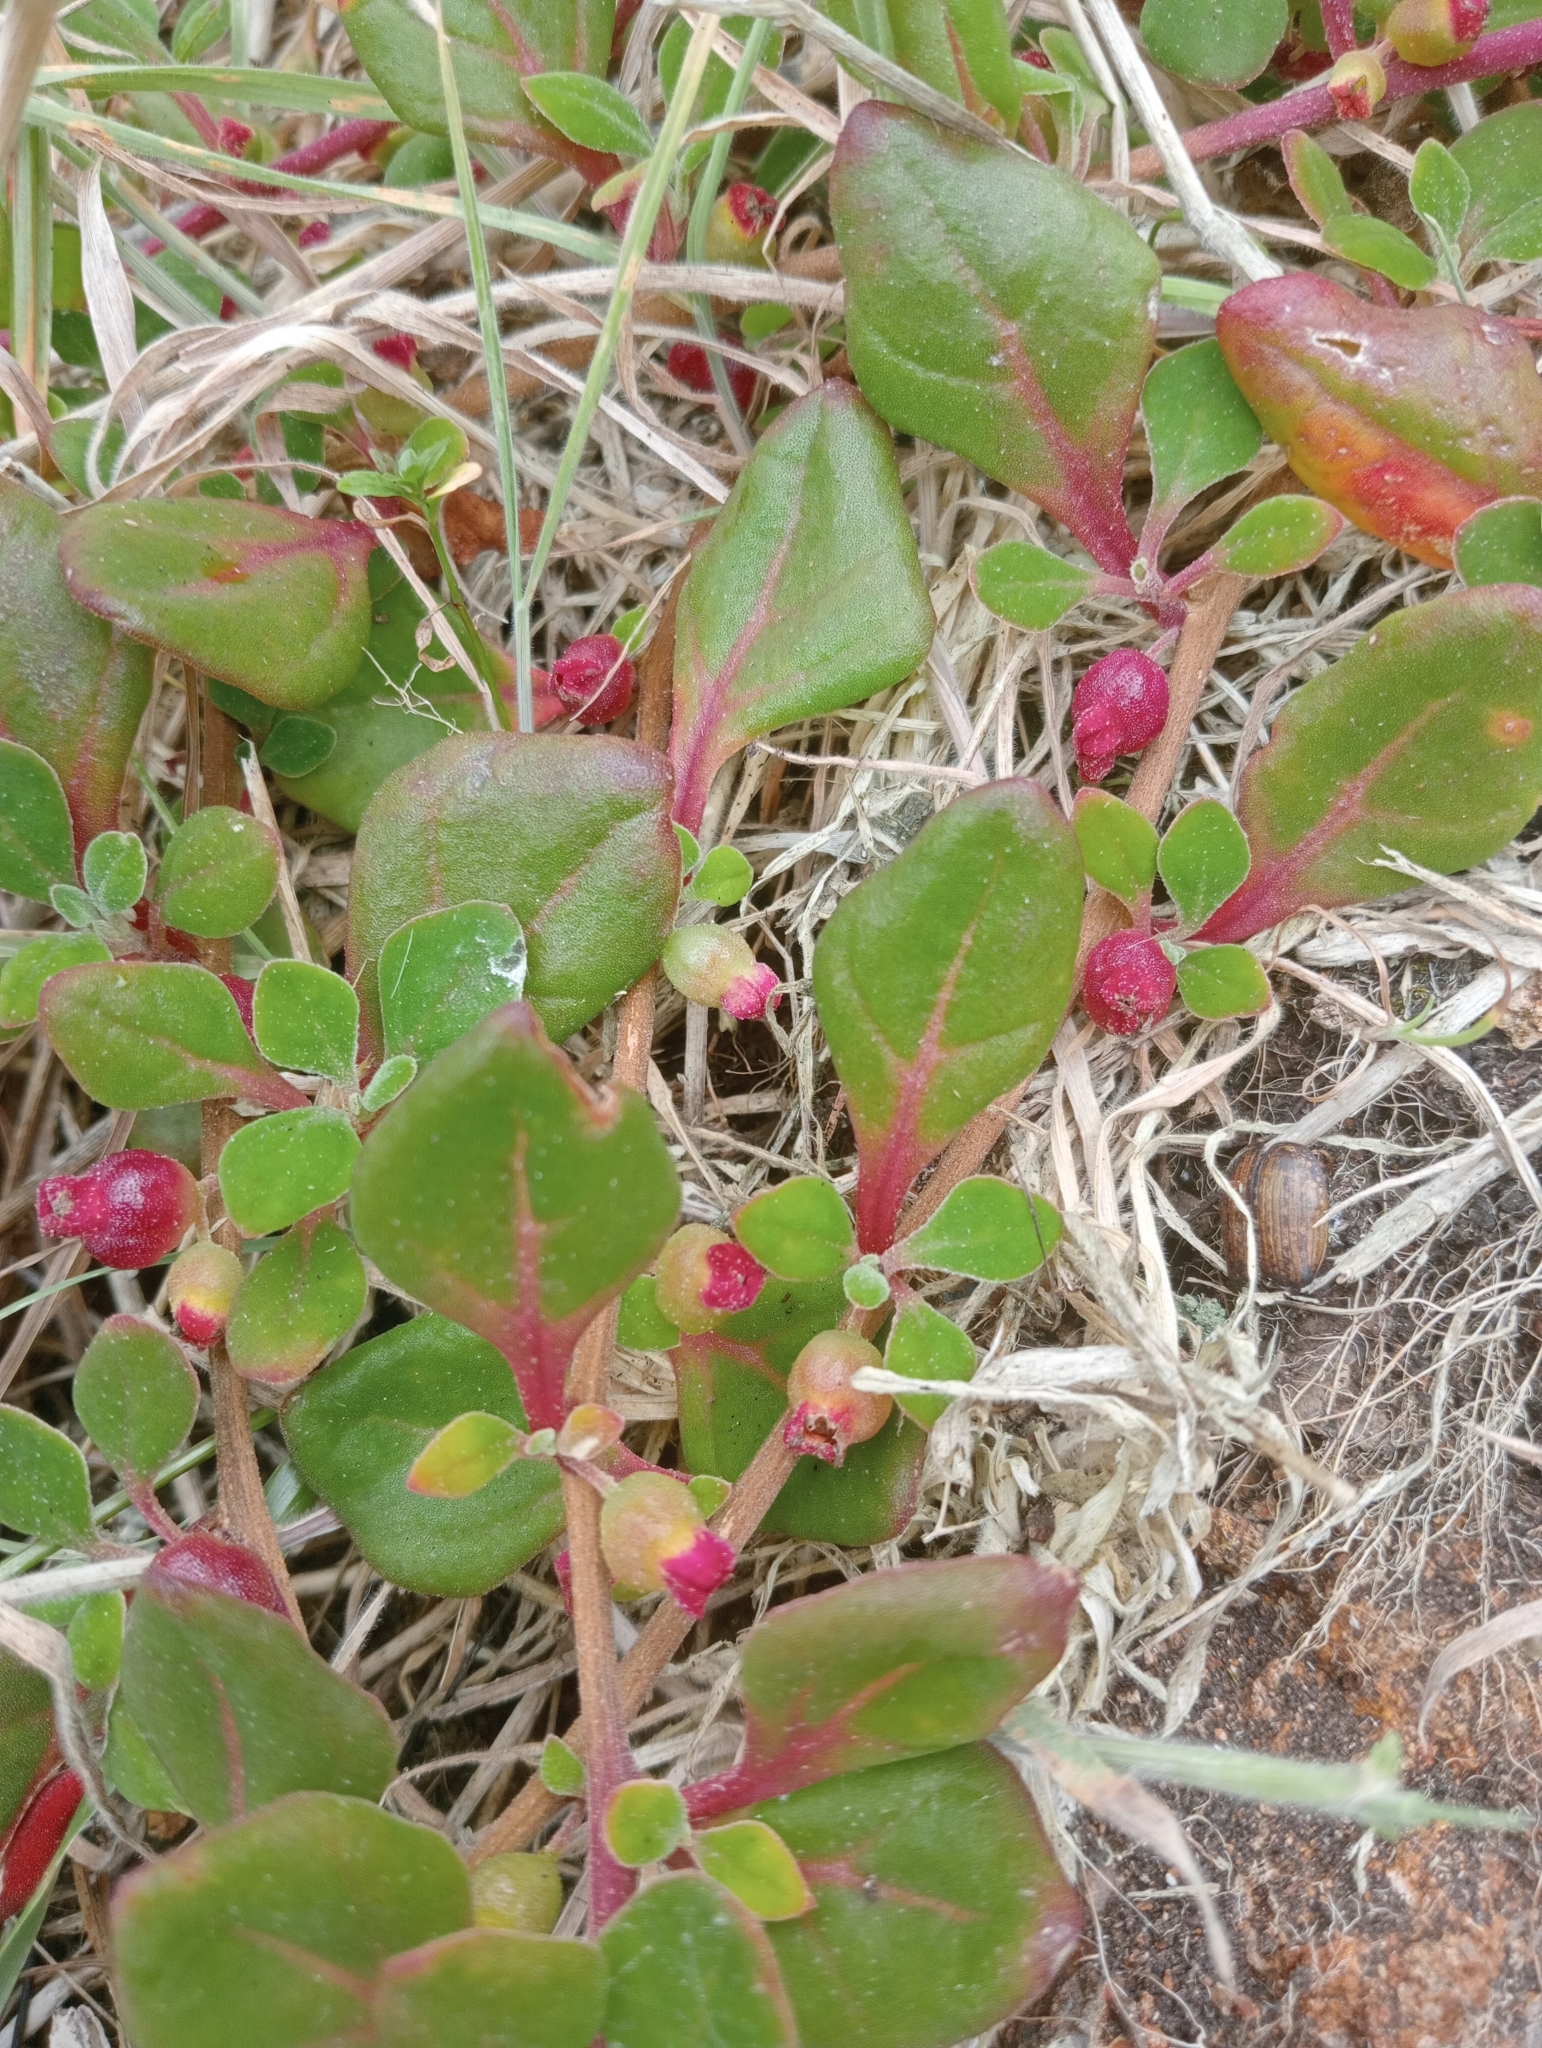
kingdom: Plantae
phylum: Tracheophyta
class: Magnoliopsida
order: Caryophyllales
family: Aizoaceae
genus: Tetragonia
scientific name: Tetragonia implexicoma
